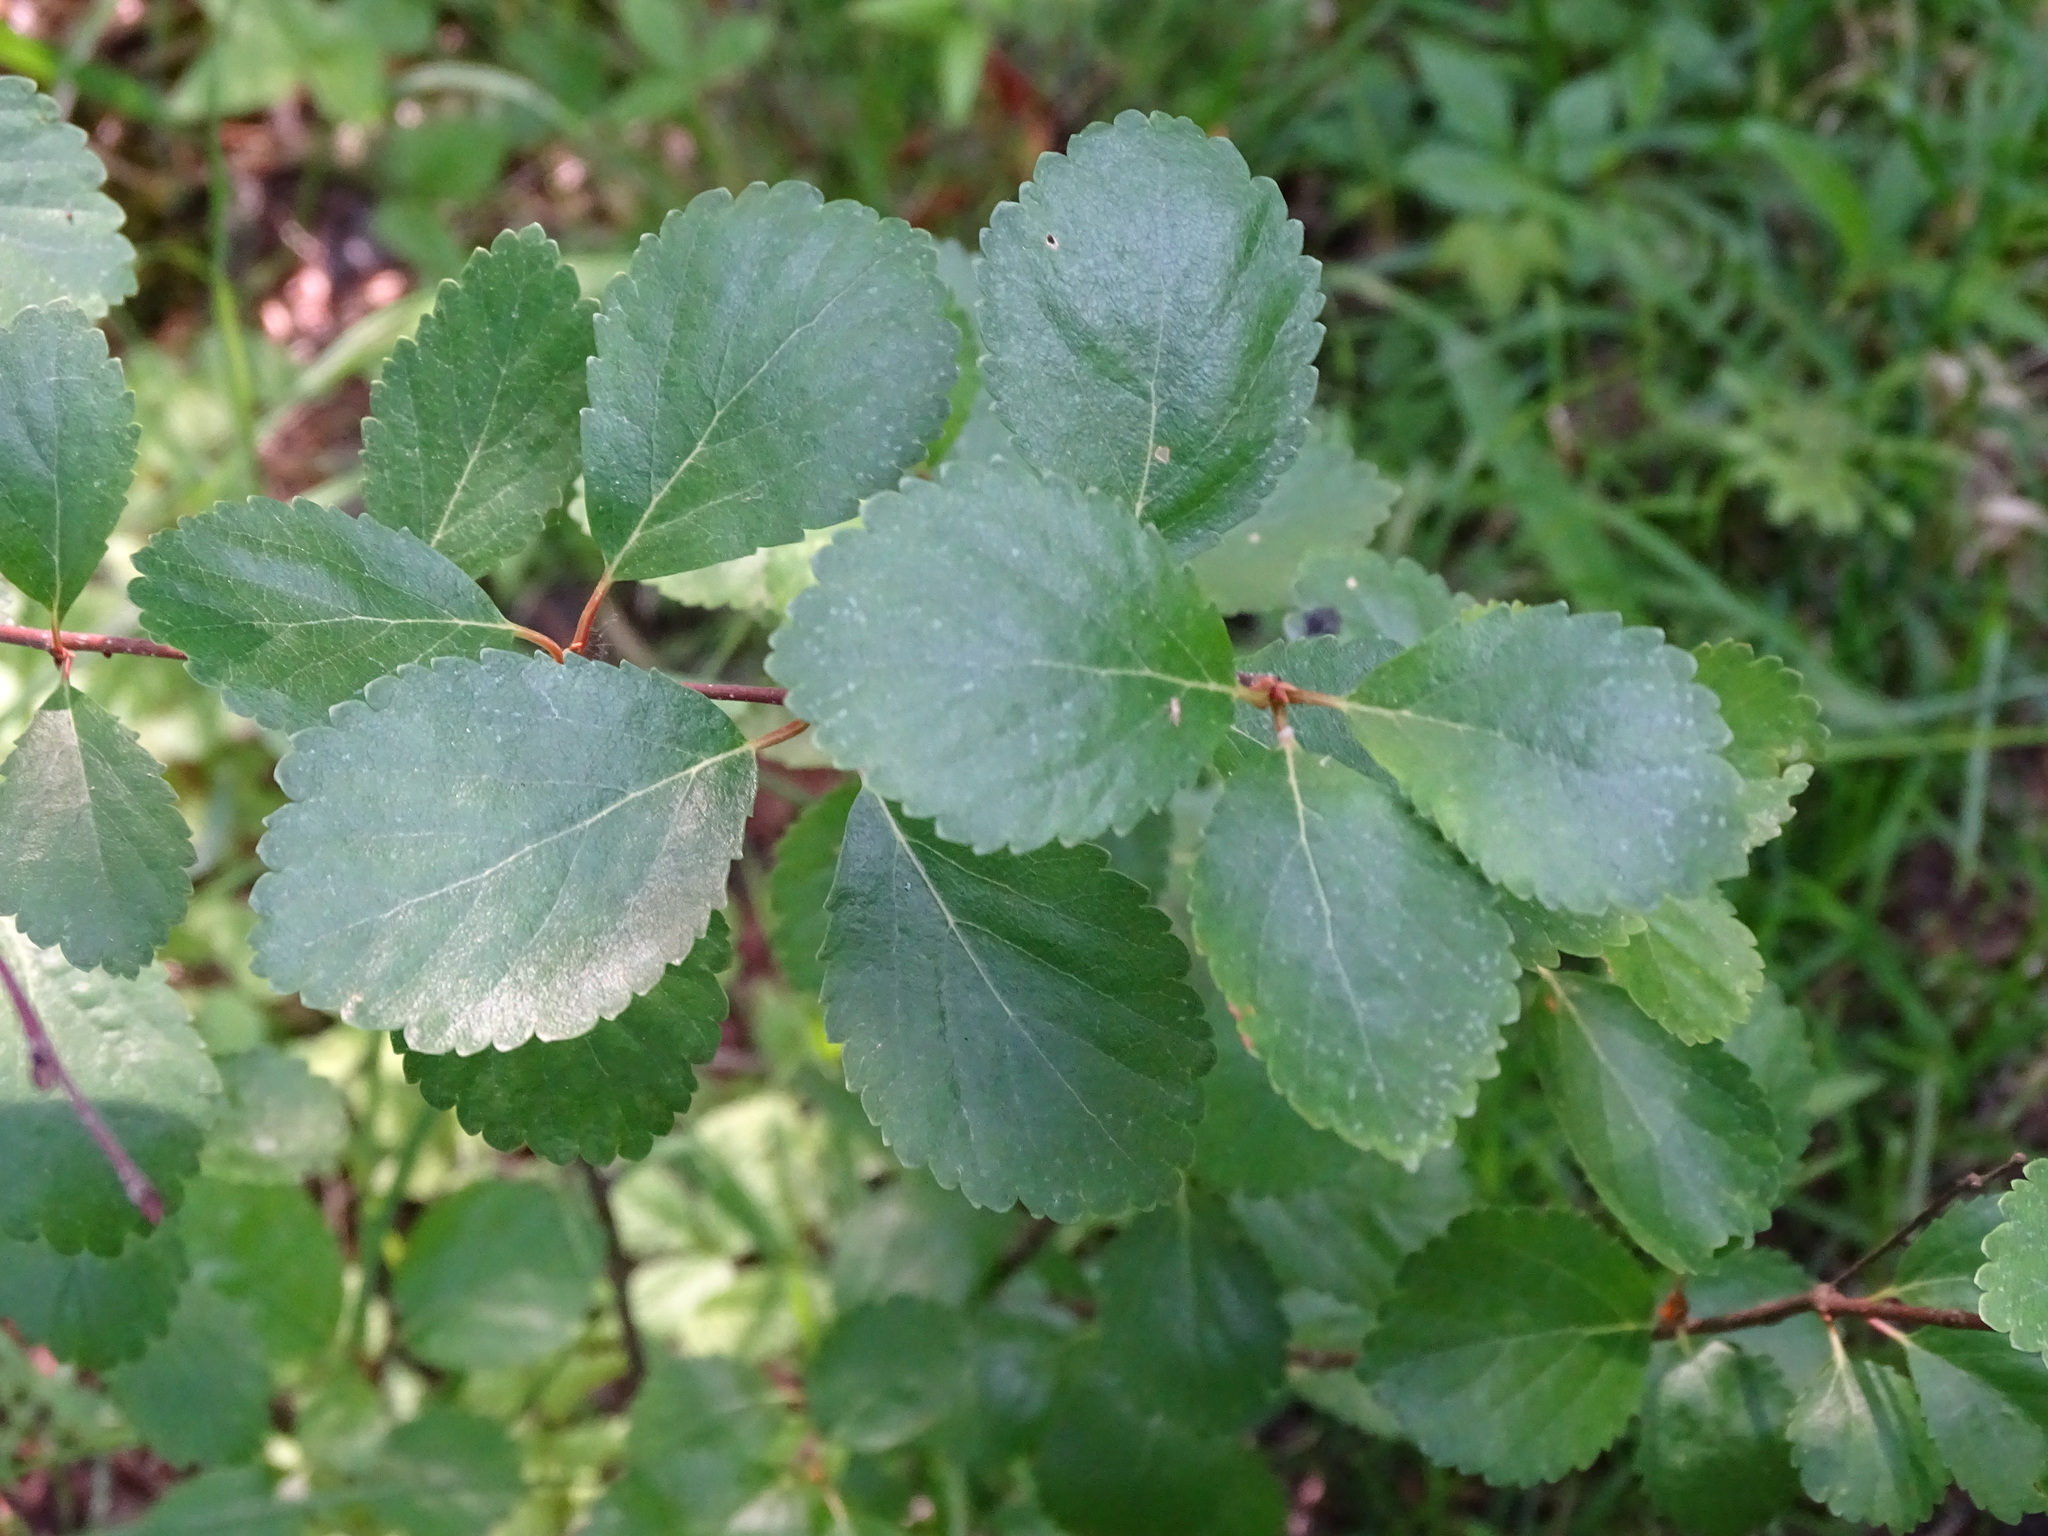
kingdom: Plantae
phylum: Tracheophyta
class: Magnoliopsida
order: Fagales
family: Betulaceae
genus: Betula
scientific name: Betula pumila
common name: Bog birch
